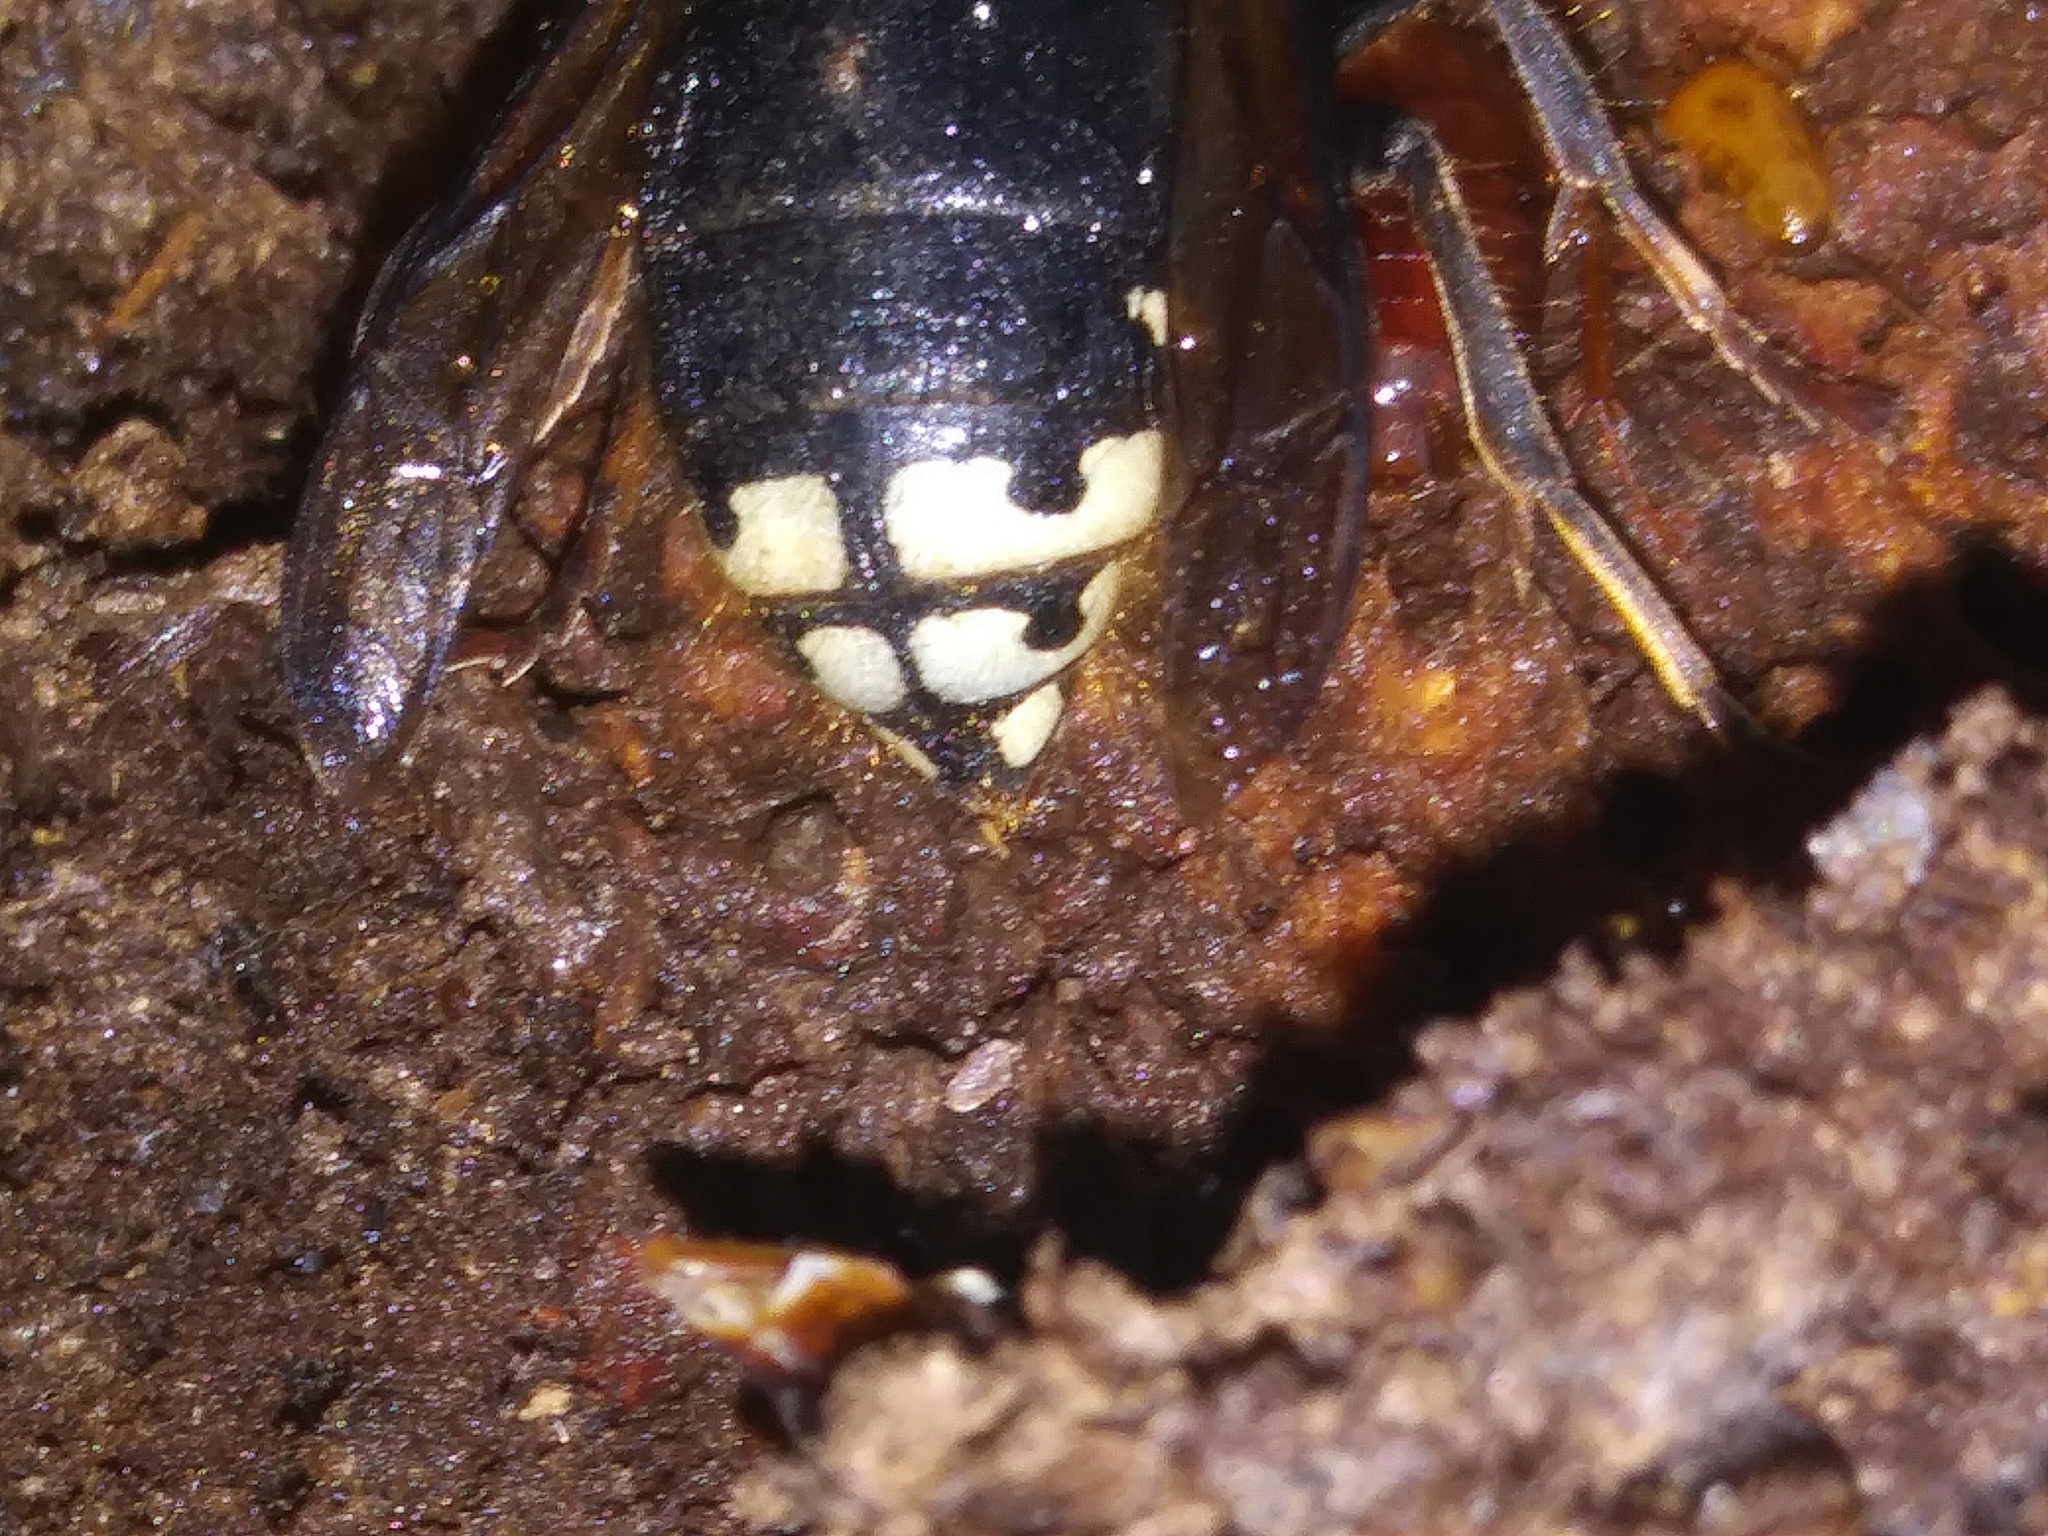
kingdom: Animalia
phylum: Arthropoda
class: Insecta
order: Hymenoptera
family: Vespidae
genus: Dolichovespula
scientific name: Dolichovespula maculata
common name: Bald-faced hornet
